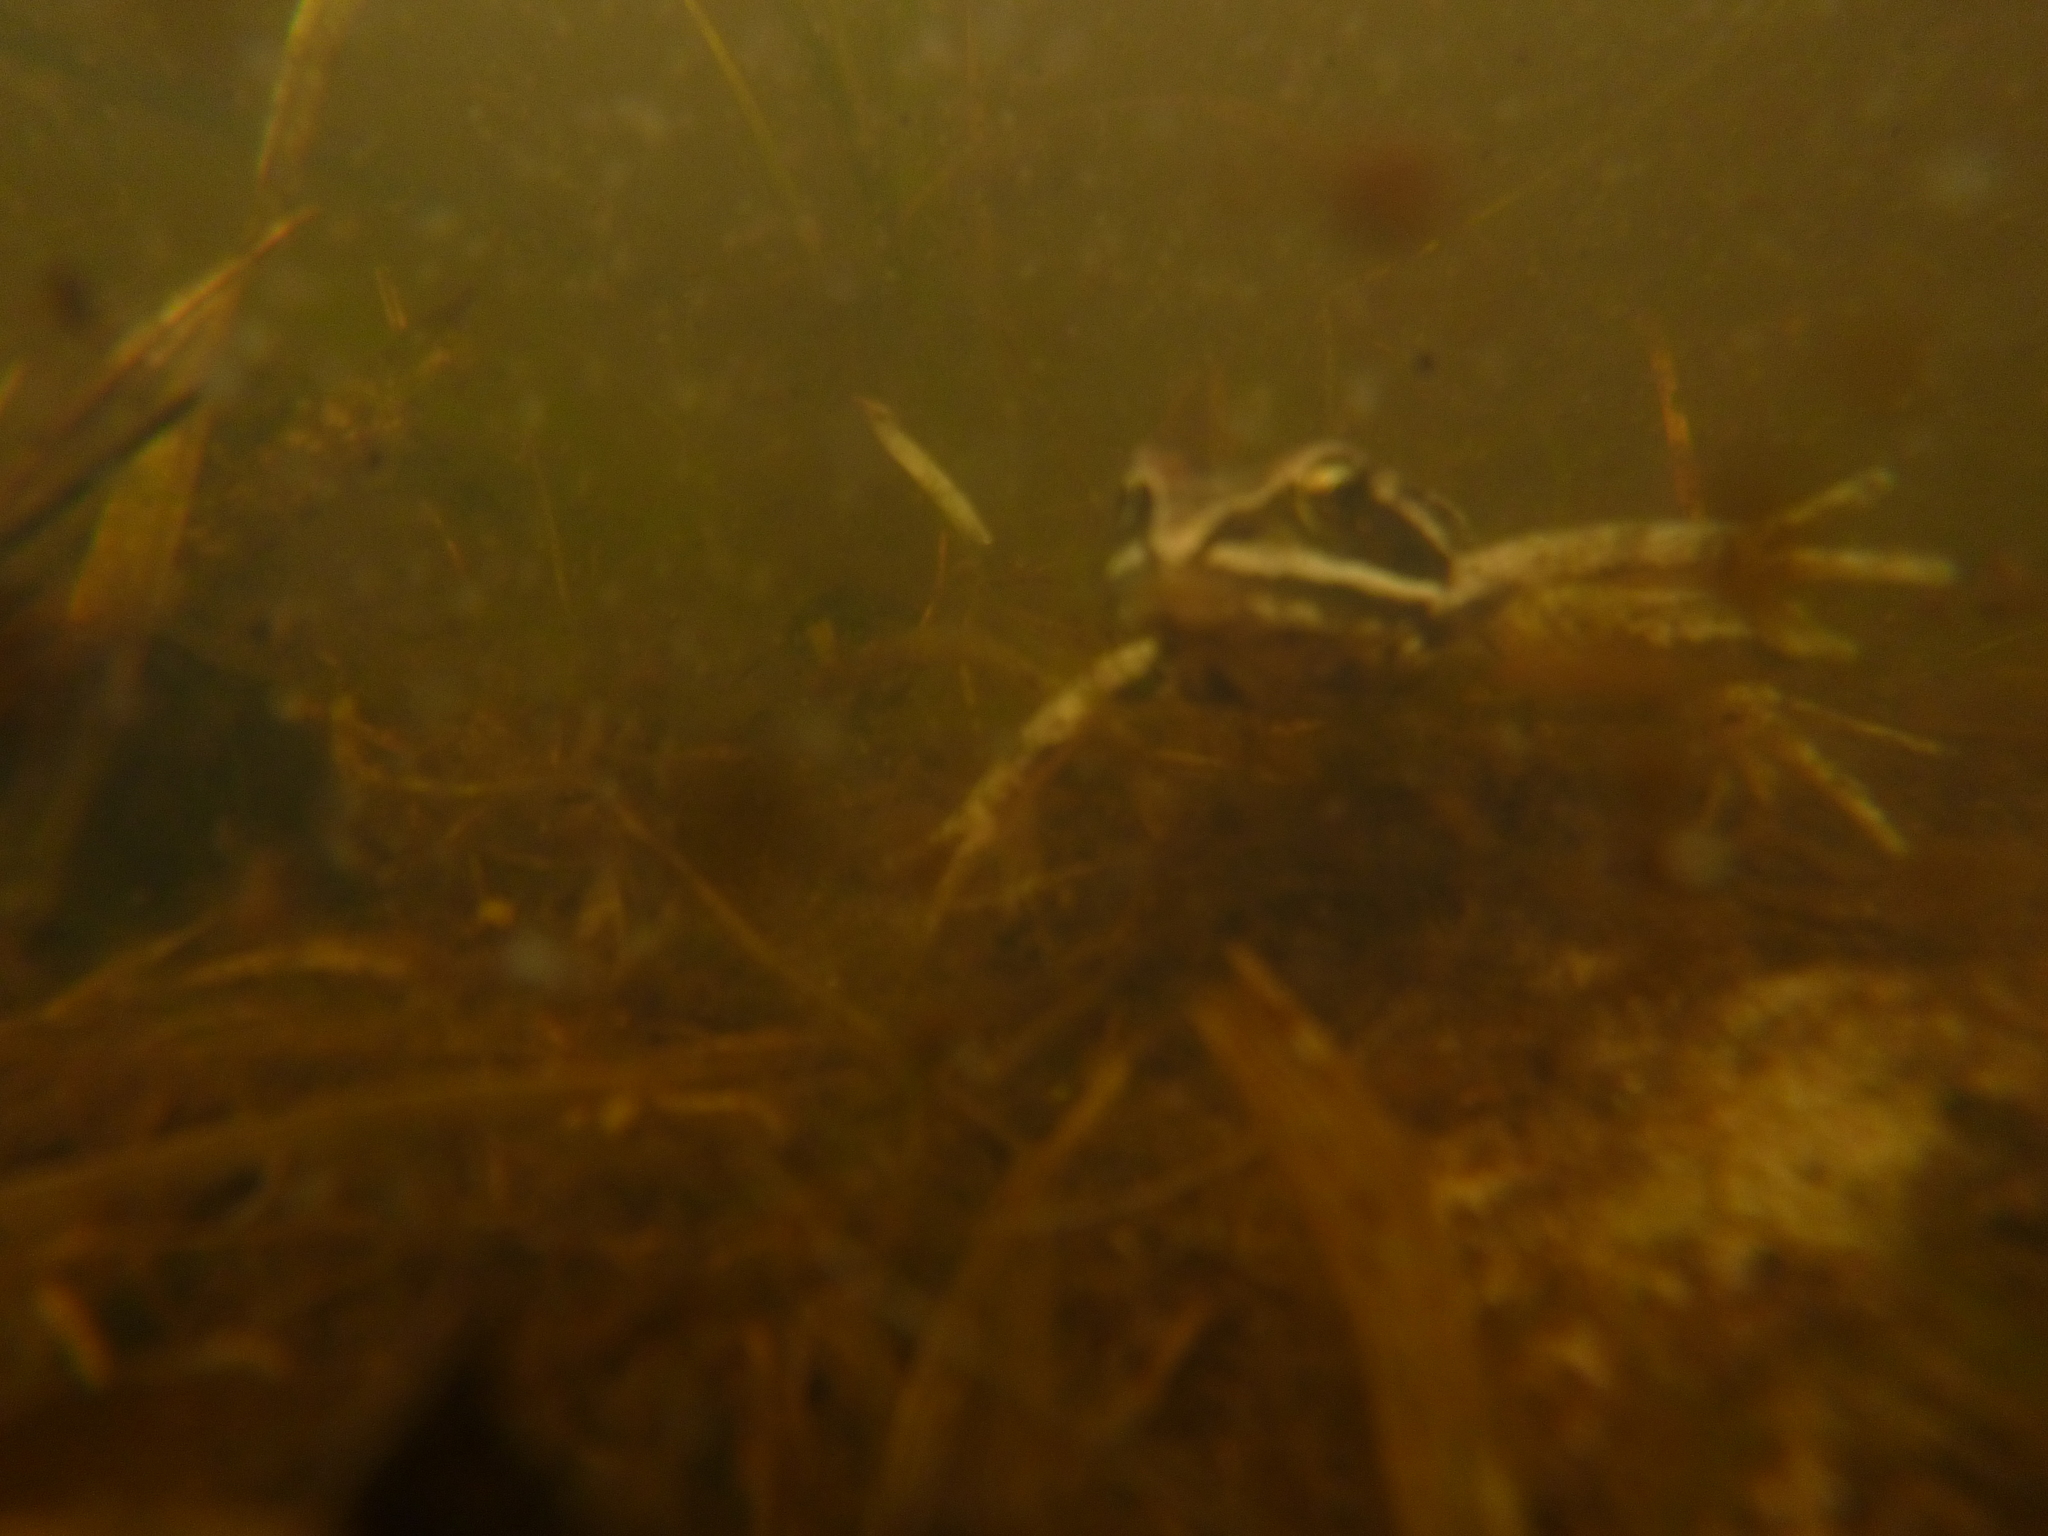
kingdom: Animalia
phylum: Chordata
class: Amphibia
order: Anura
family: Ranidae
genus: Rana
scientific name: Rana
